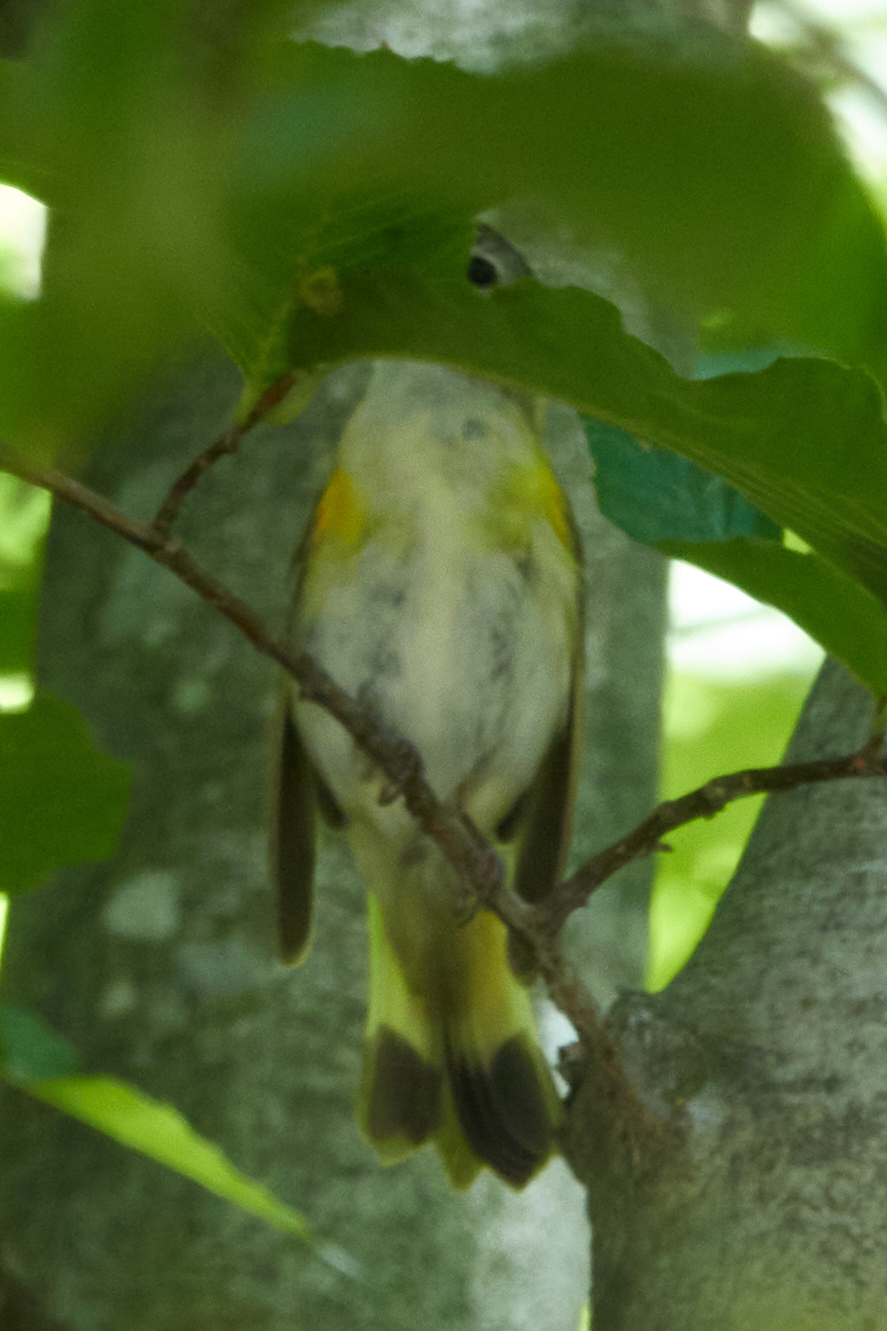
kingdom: Animalia
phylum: Chordata
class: Aves
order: Passeriformes
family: Parulidae
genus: Setophaga
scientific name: Setophaga ruticilla
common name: American redstart
